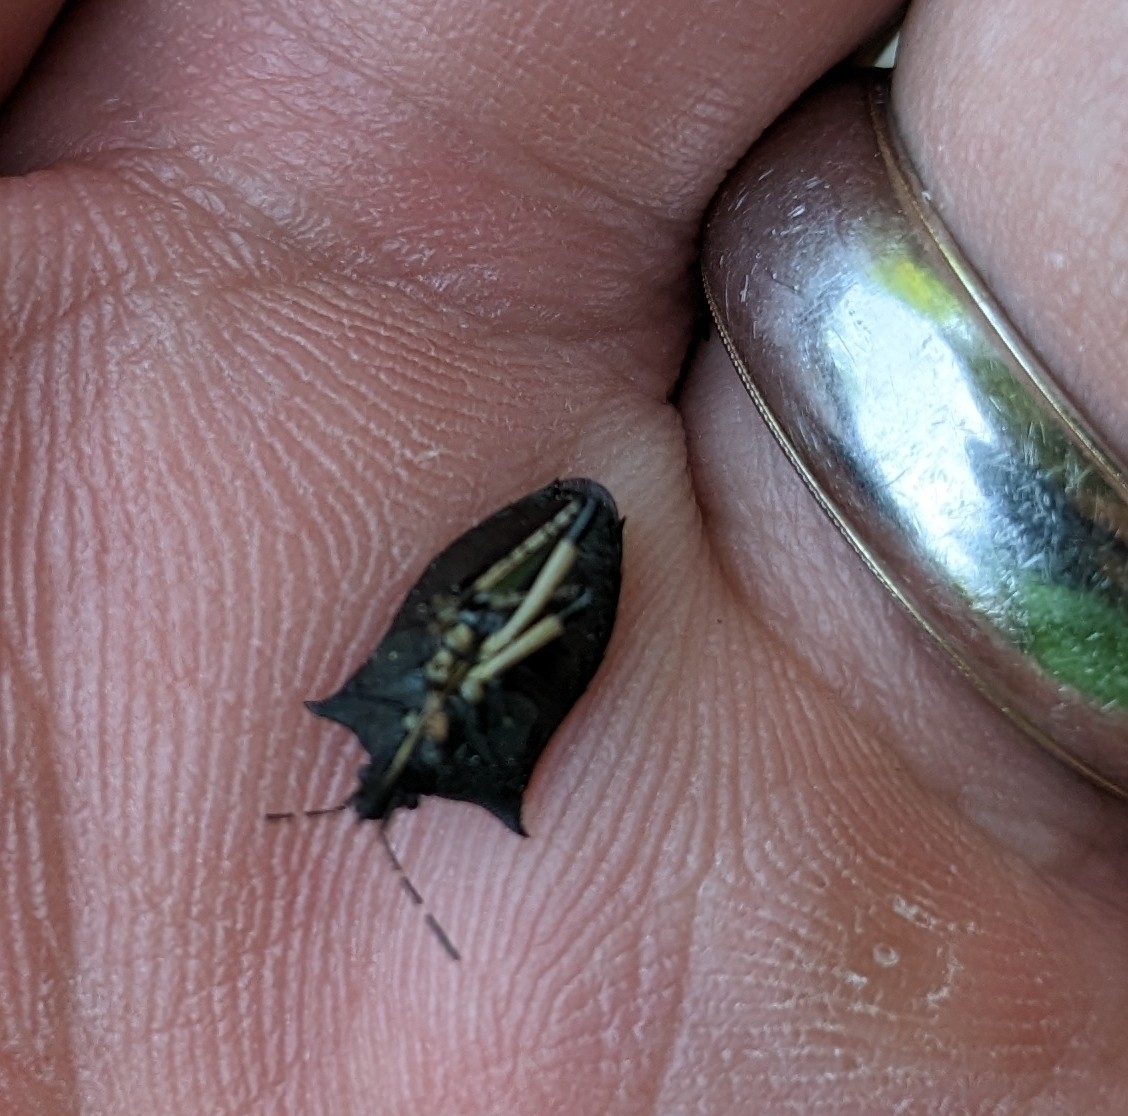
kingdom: Animalia
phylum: Arthropoda
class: Insecta
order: Hemiptera
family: Pentatomidae
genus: Proxys
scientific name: Proxys punctulatus
